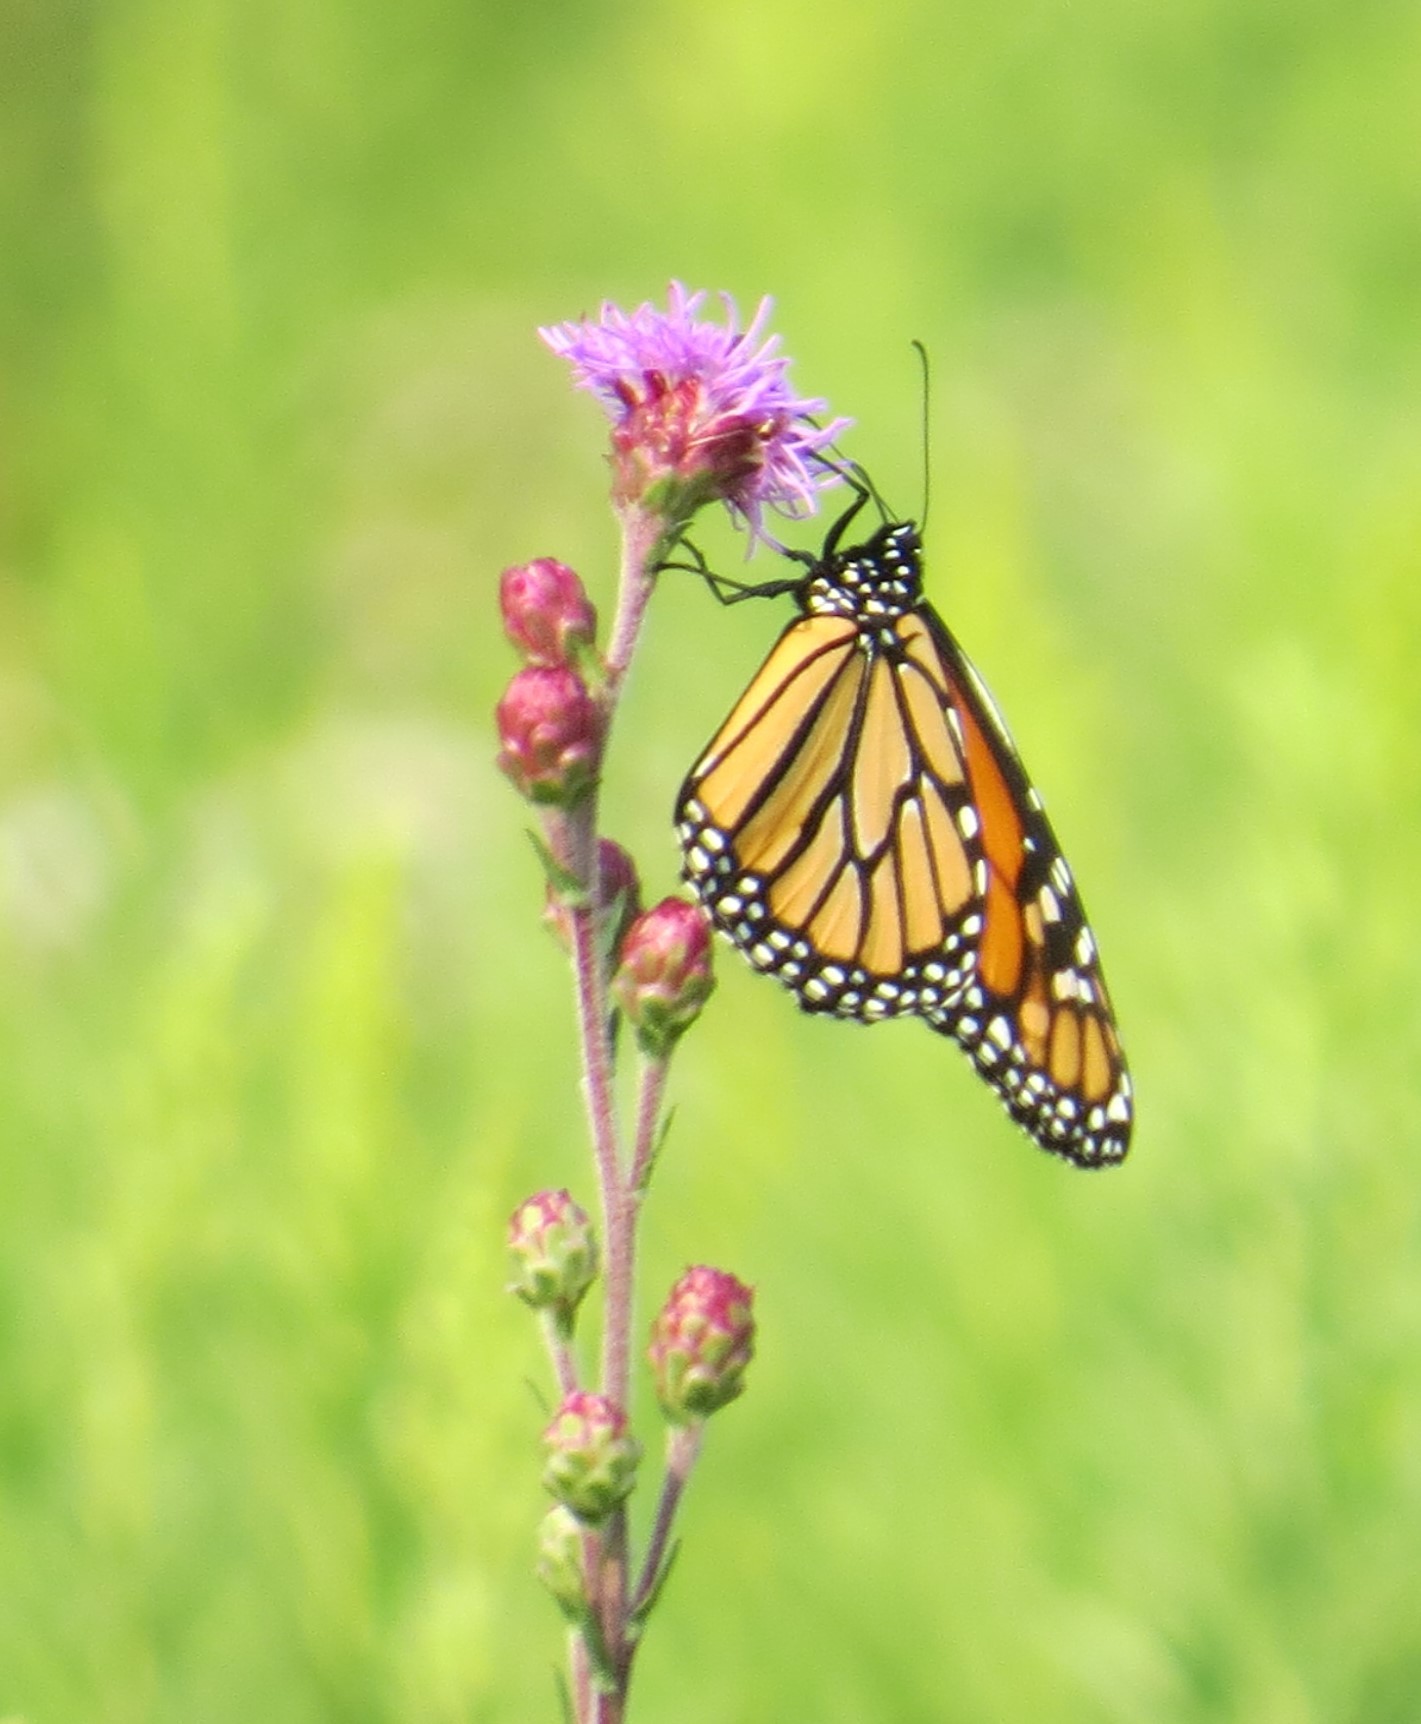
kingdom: Animalia
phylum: Arthropoda
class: Insecta
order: Lepidoptera
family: Nymphalidae
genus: Danaus
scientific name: Danaus plexippus
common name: Monarch
